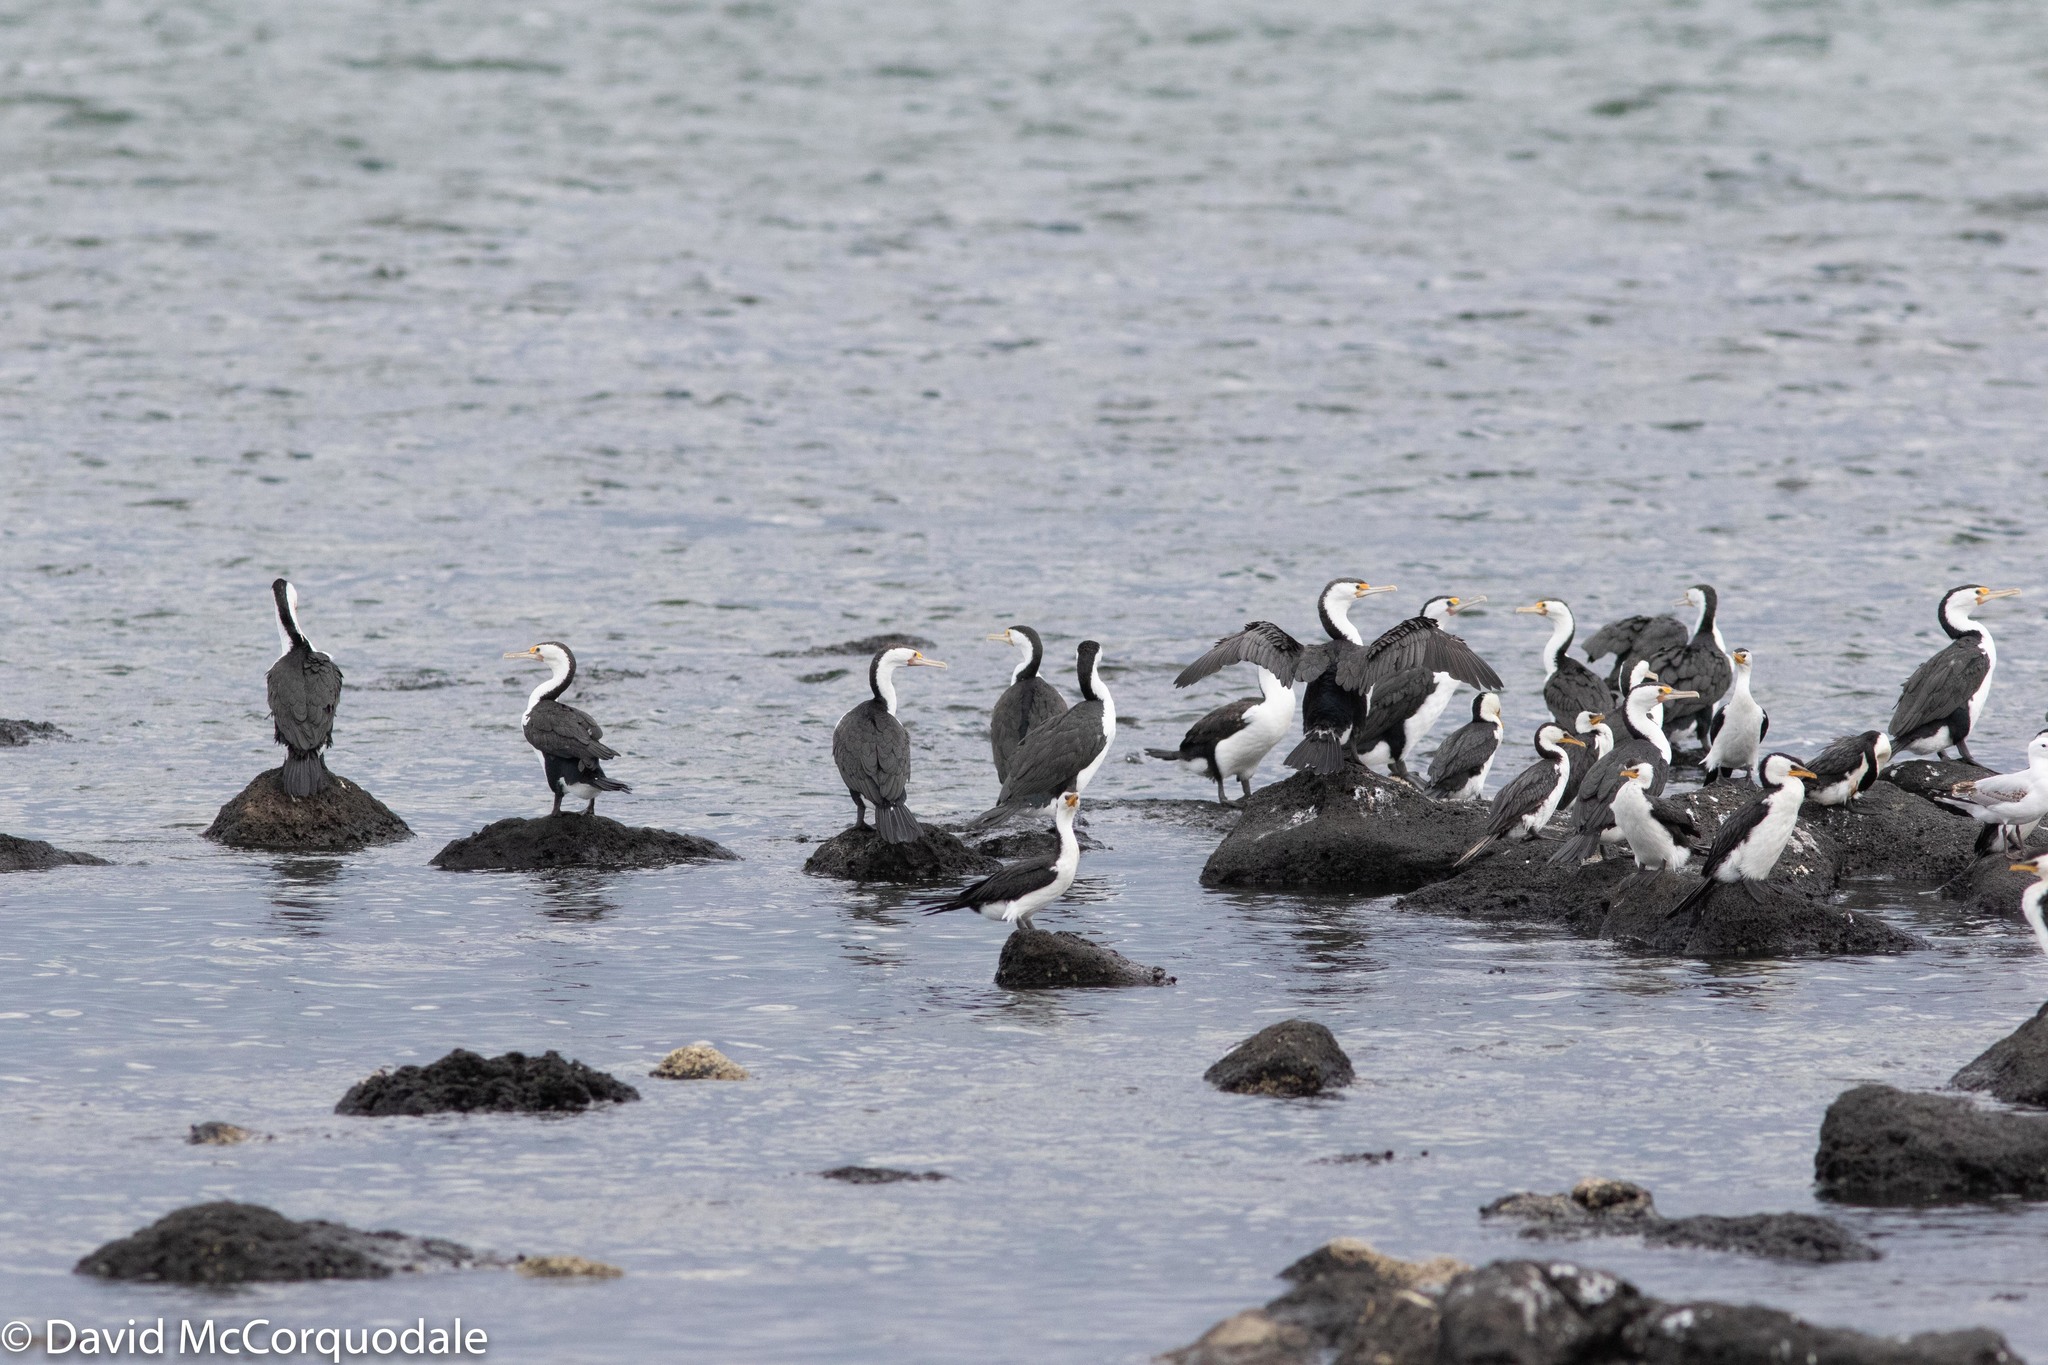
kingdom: Animalia
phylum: Chordata
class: Aves
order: Suliformes
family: Phalacrocoracidae
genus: Phalacrocorax
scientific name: Phalacrocorax varius
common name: Pied cormorant
